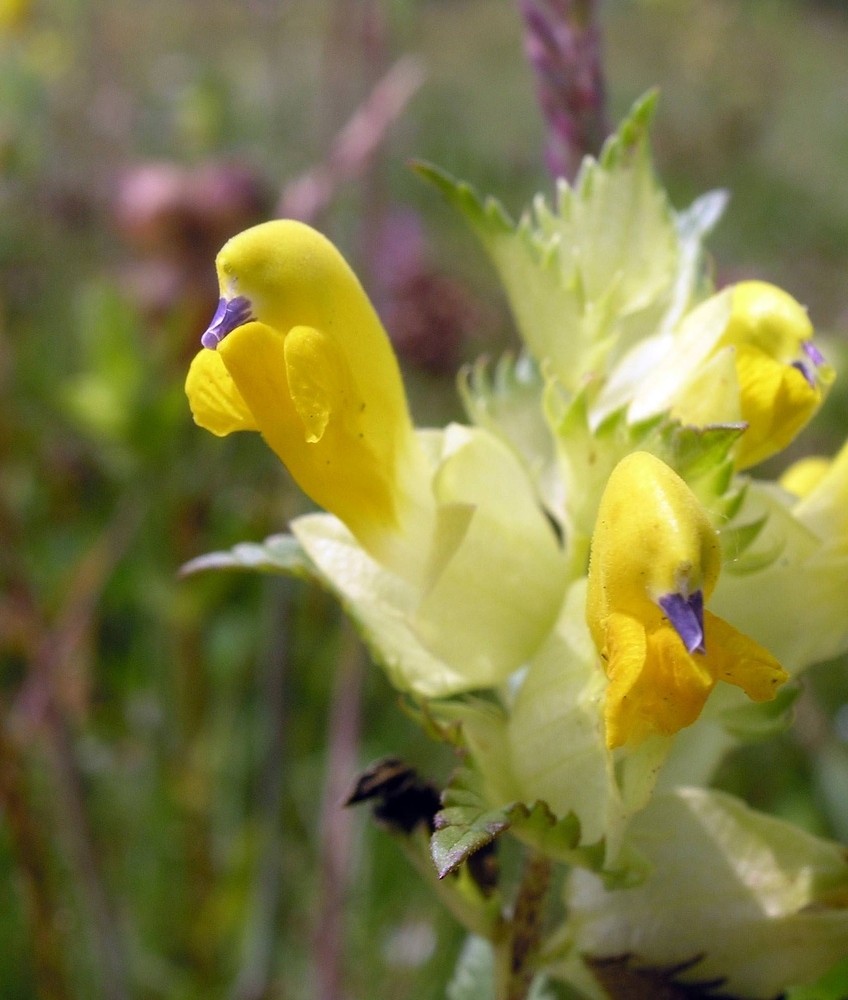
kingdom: Plantae
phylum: Tracheophyta
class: Magnoliopsida
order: Lamiales
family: Orobanchaceae
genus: Rhinanthus
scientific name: Rhinanthus serotinus
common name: Late-flowering yellow rattle
